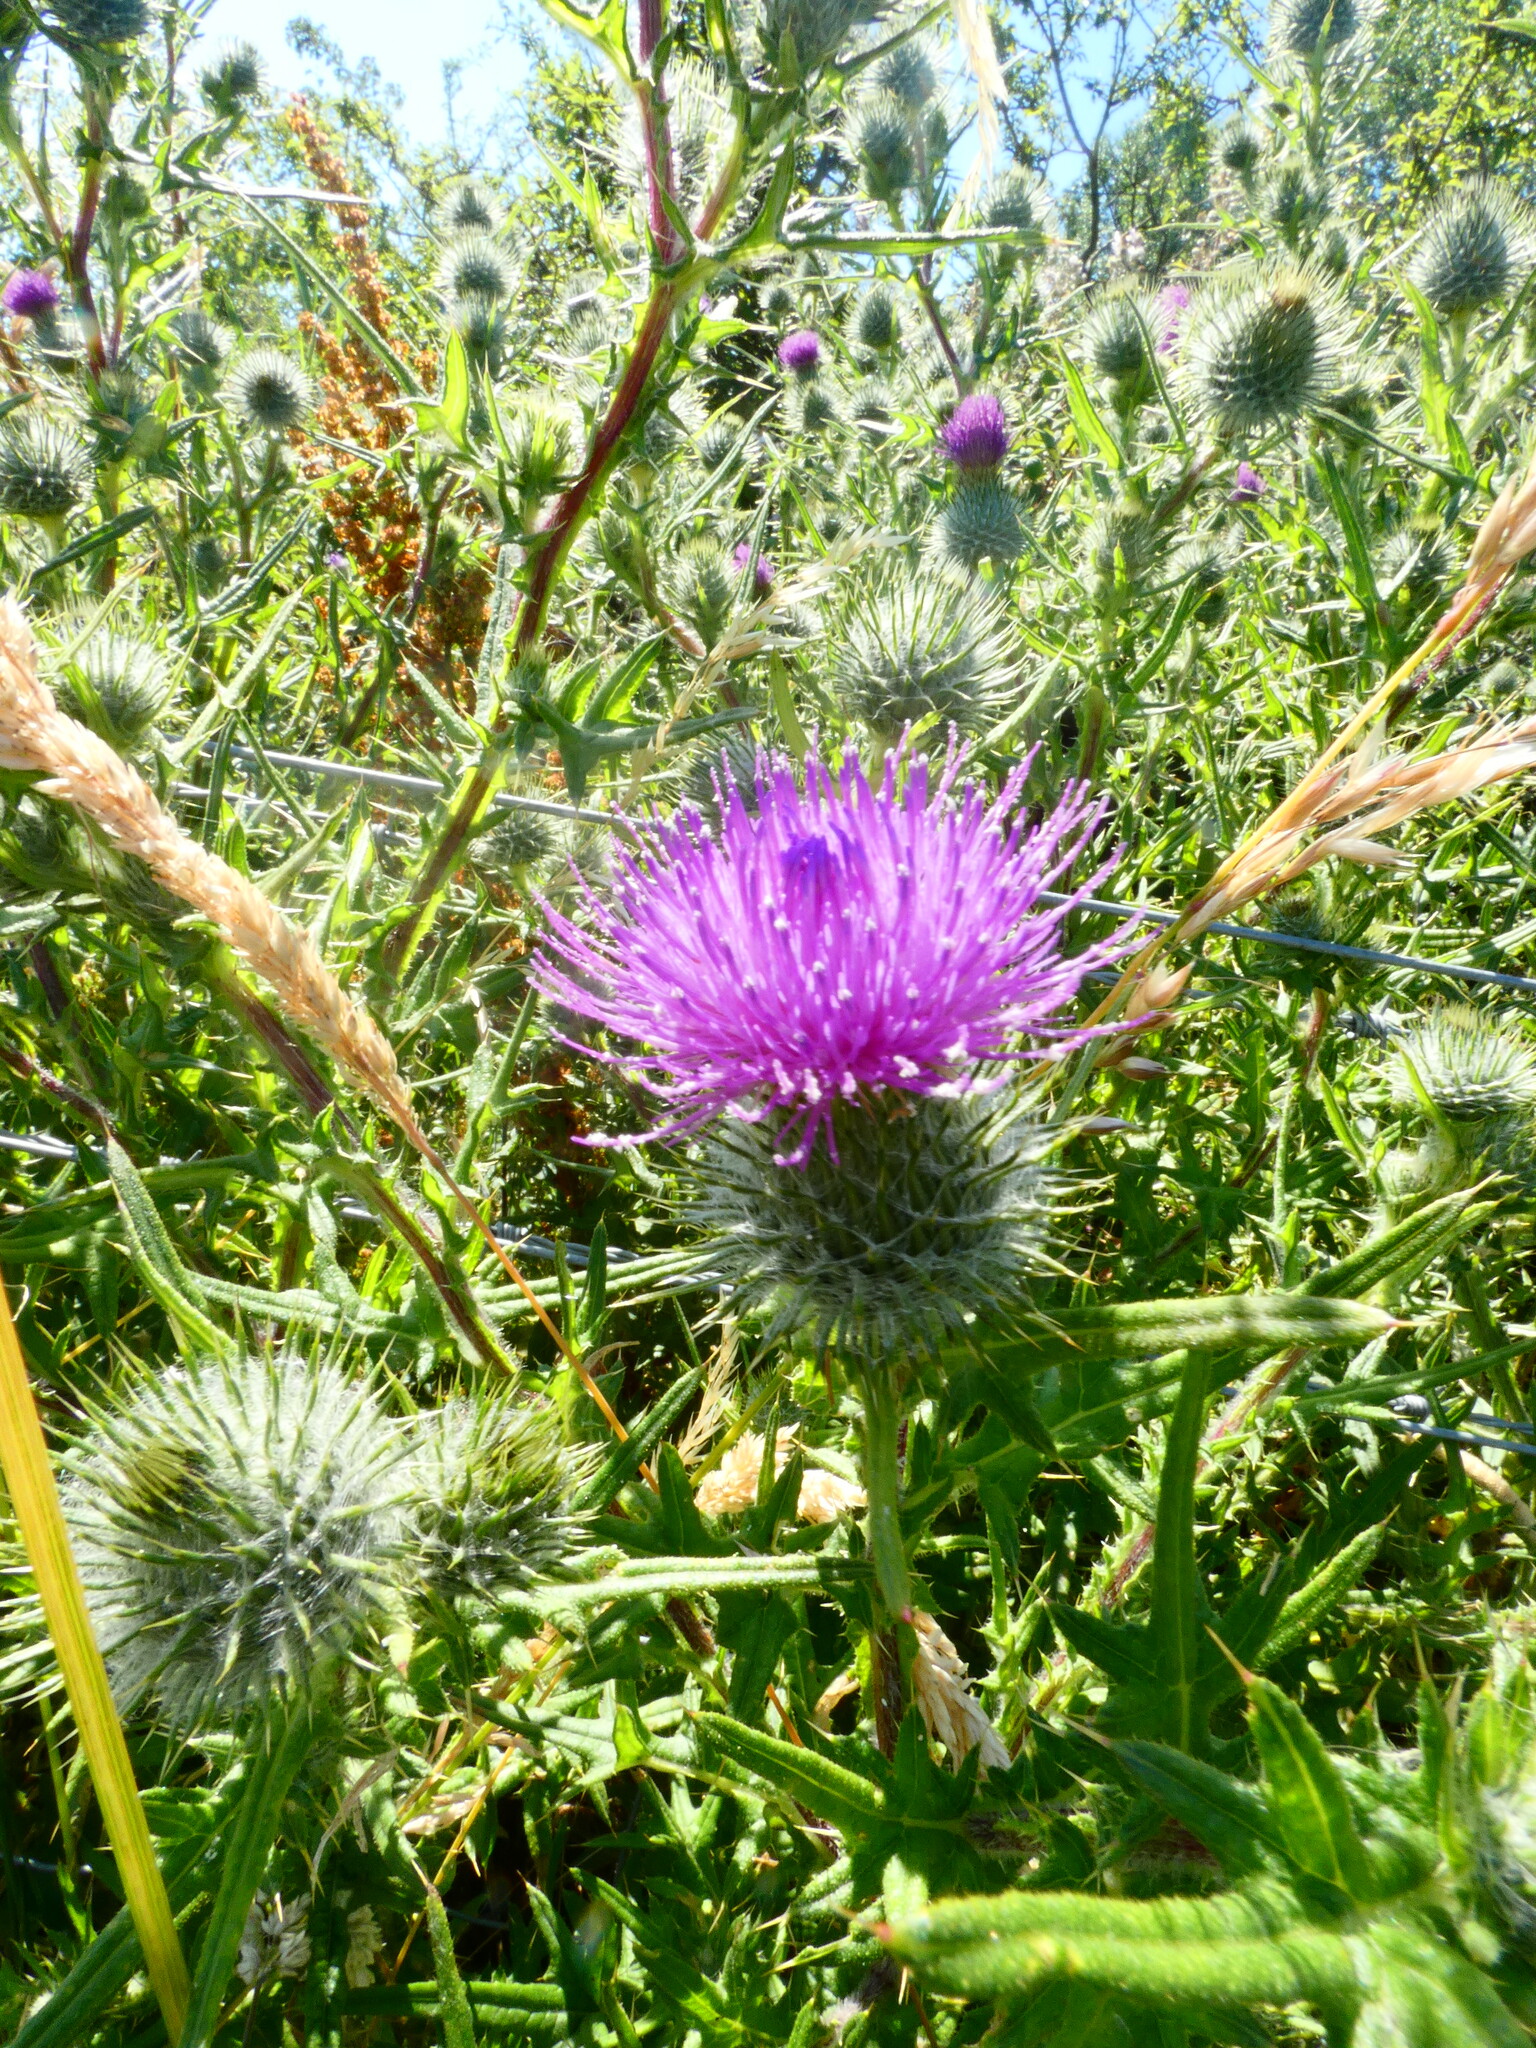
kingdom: Plantae
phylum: Tracheophyta
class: Magnoliopsida
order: Asterales
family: Asteraceae
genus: Cirsium
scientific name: Cirsium vulgare
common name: Bull thistle
